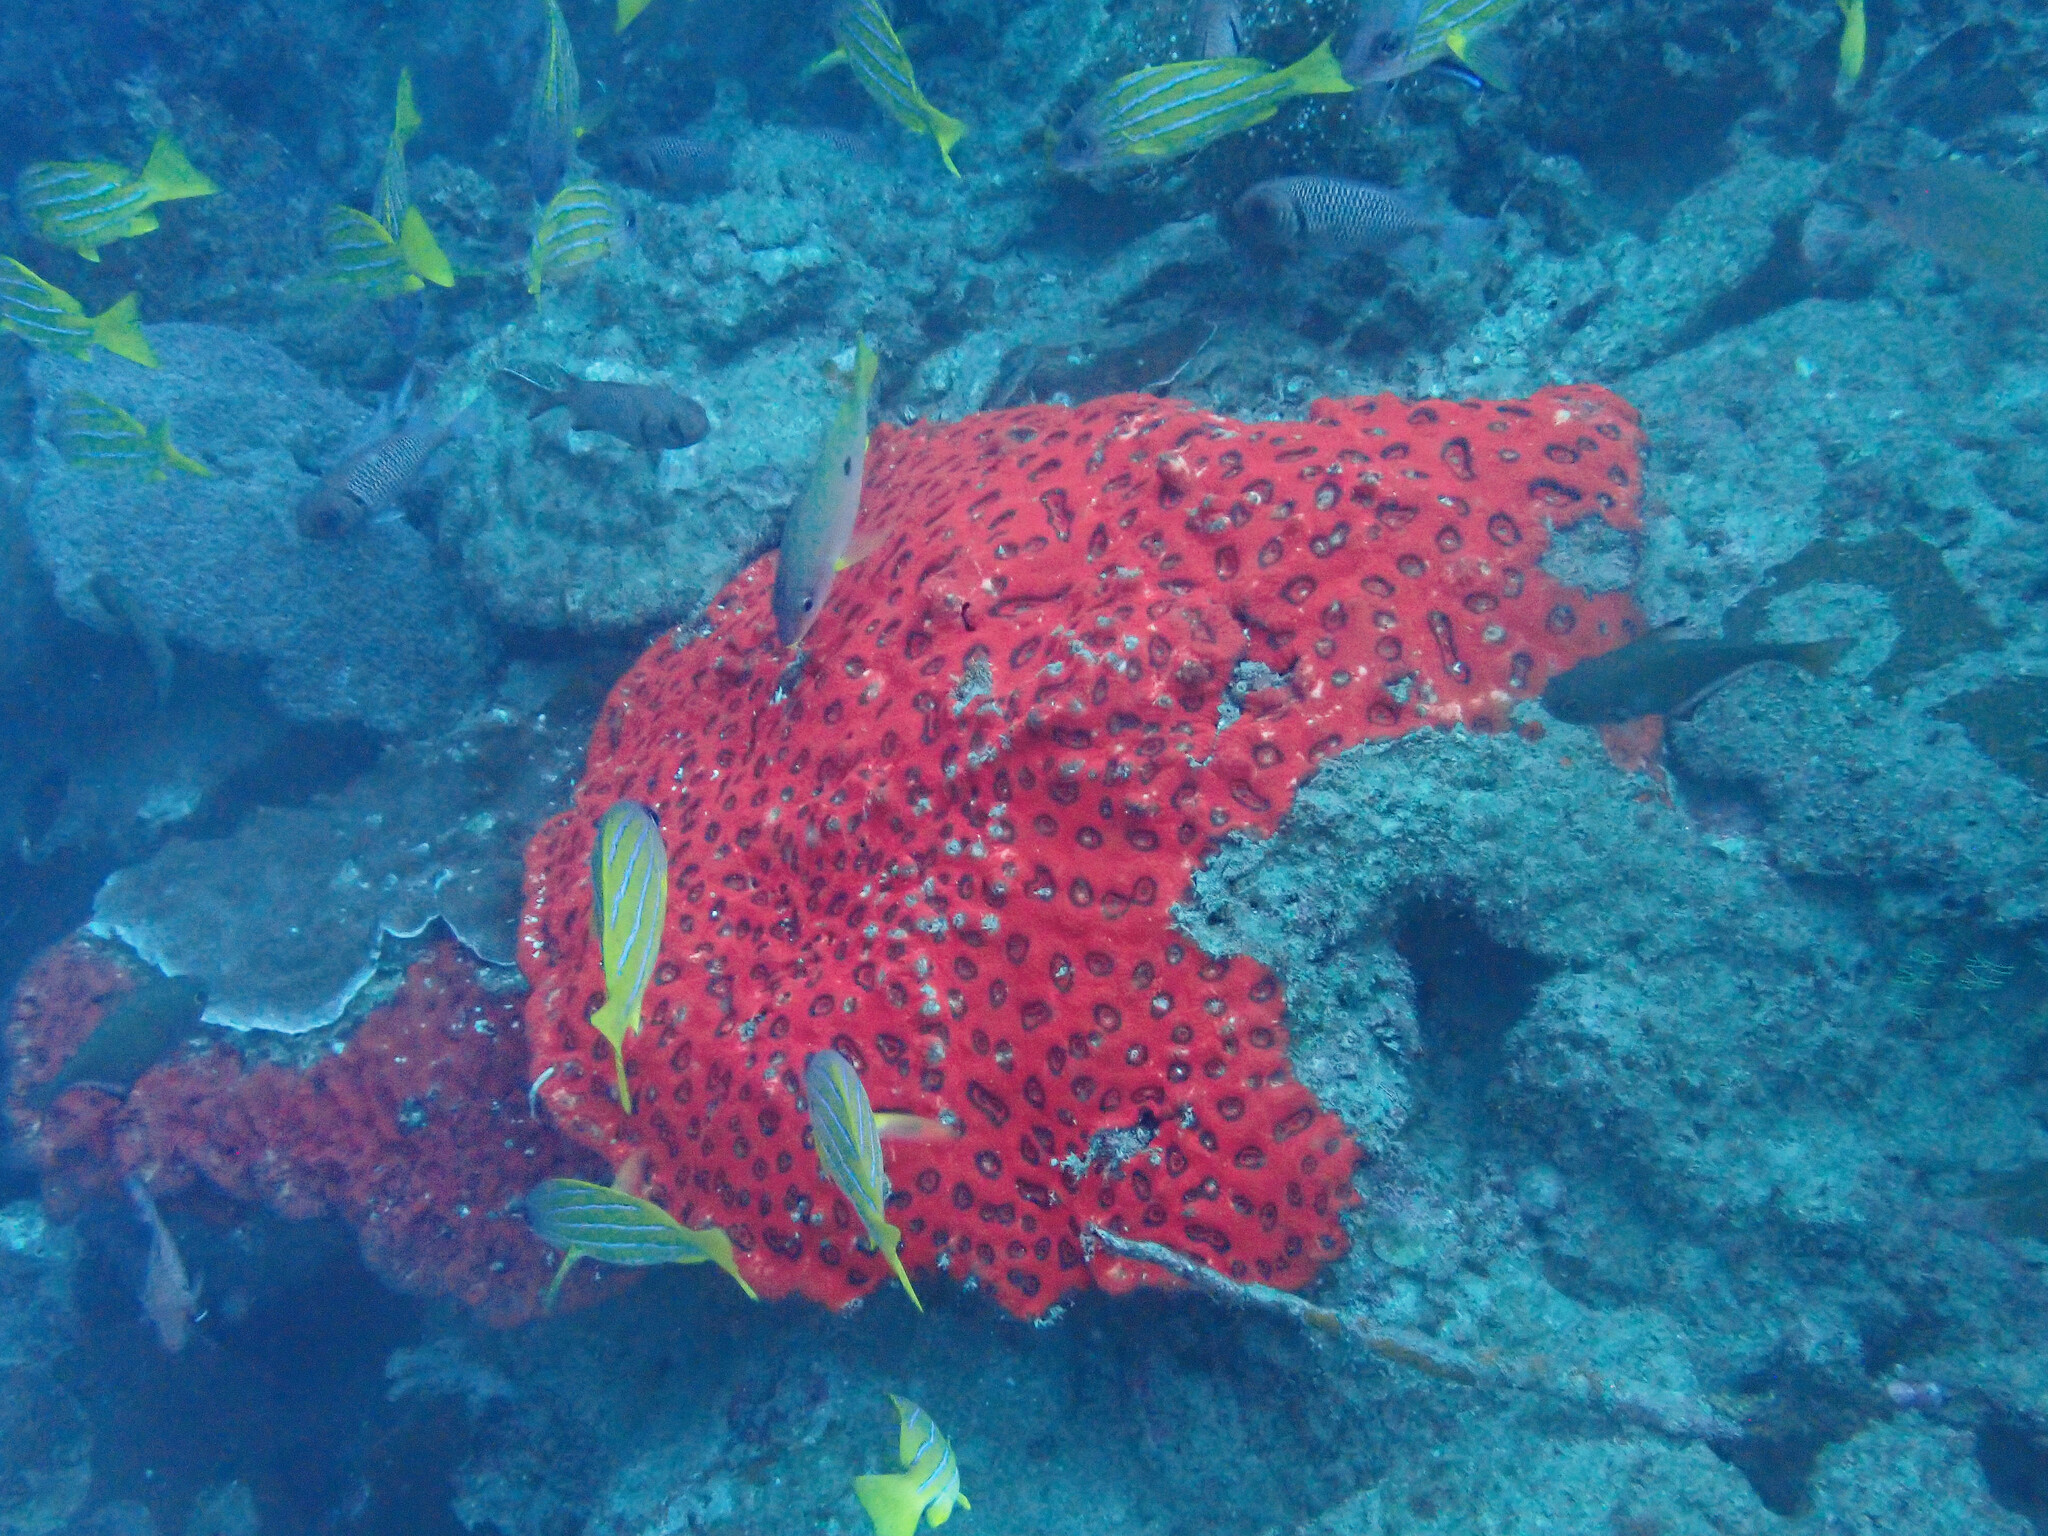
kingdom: Animalia
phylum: Cnidaria
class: Anthozoa
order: Scleractinia
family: Lobophylliidae
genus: Lobophyllia
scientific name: Lobophyllia rowleyensis
